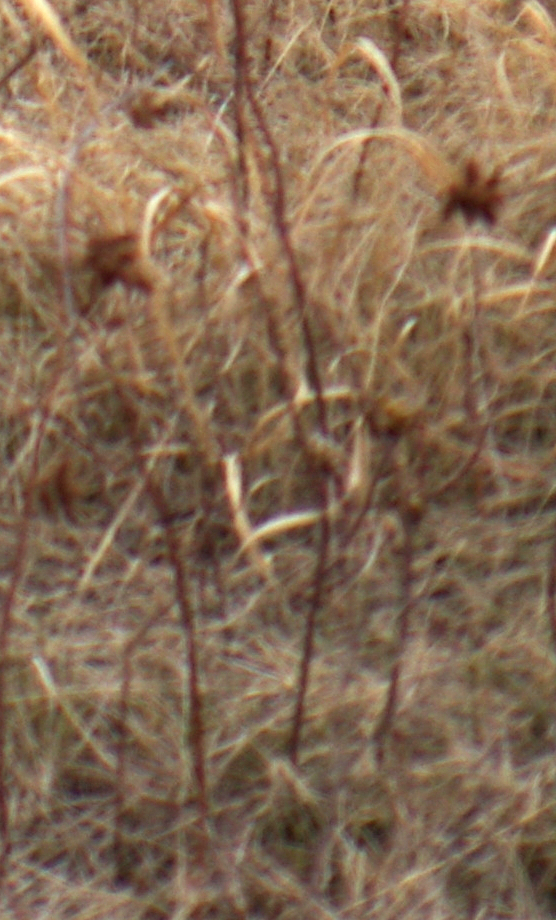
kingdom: Plantae
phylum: Tracheophyta
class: Magnoliopsida
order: Fabales
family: Fabaceae
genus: Glycyrrhiza
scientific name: Glycyrrhiza lepidota
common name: American liquorice
